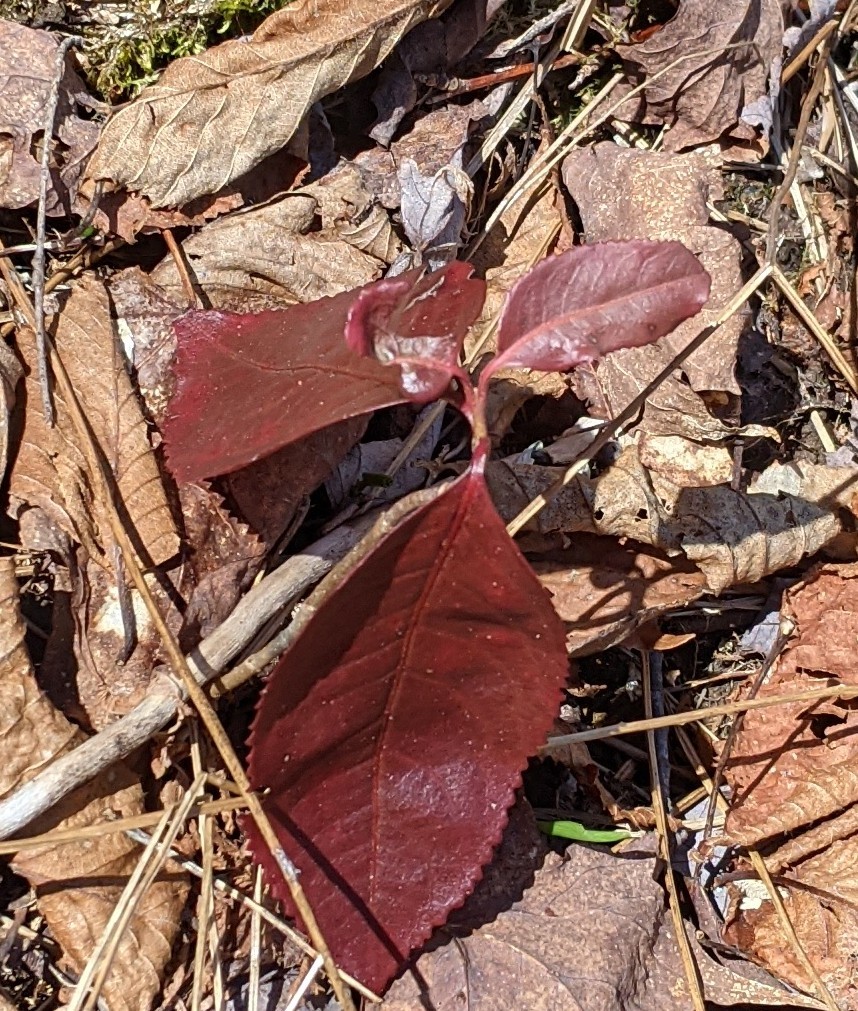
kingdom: Plantae
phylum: Tracheophyta
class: Magnoliopsida
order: Dipsacales
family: Viburnaceae
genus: Viburnum
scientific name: Viburnum cassinoides
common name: Swamp haw
